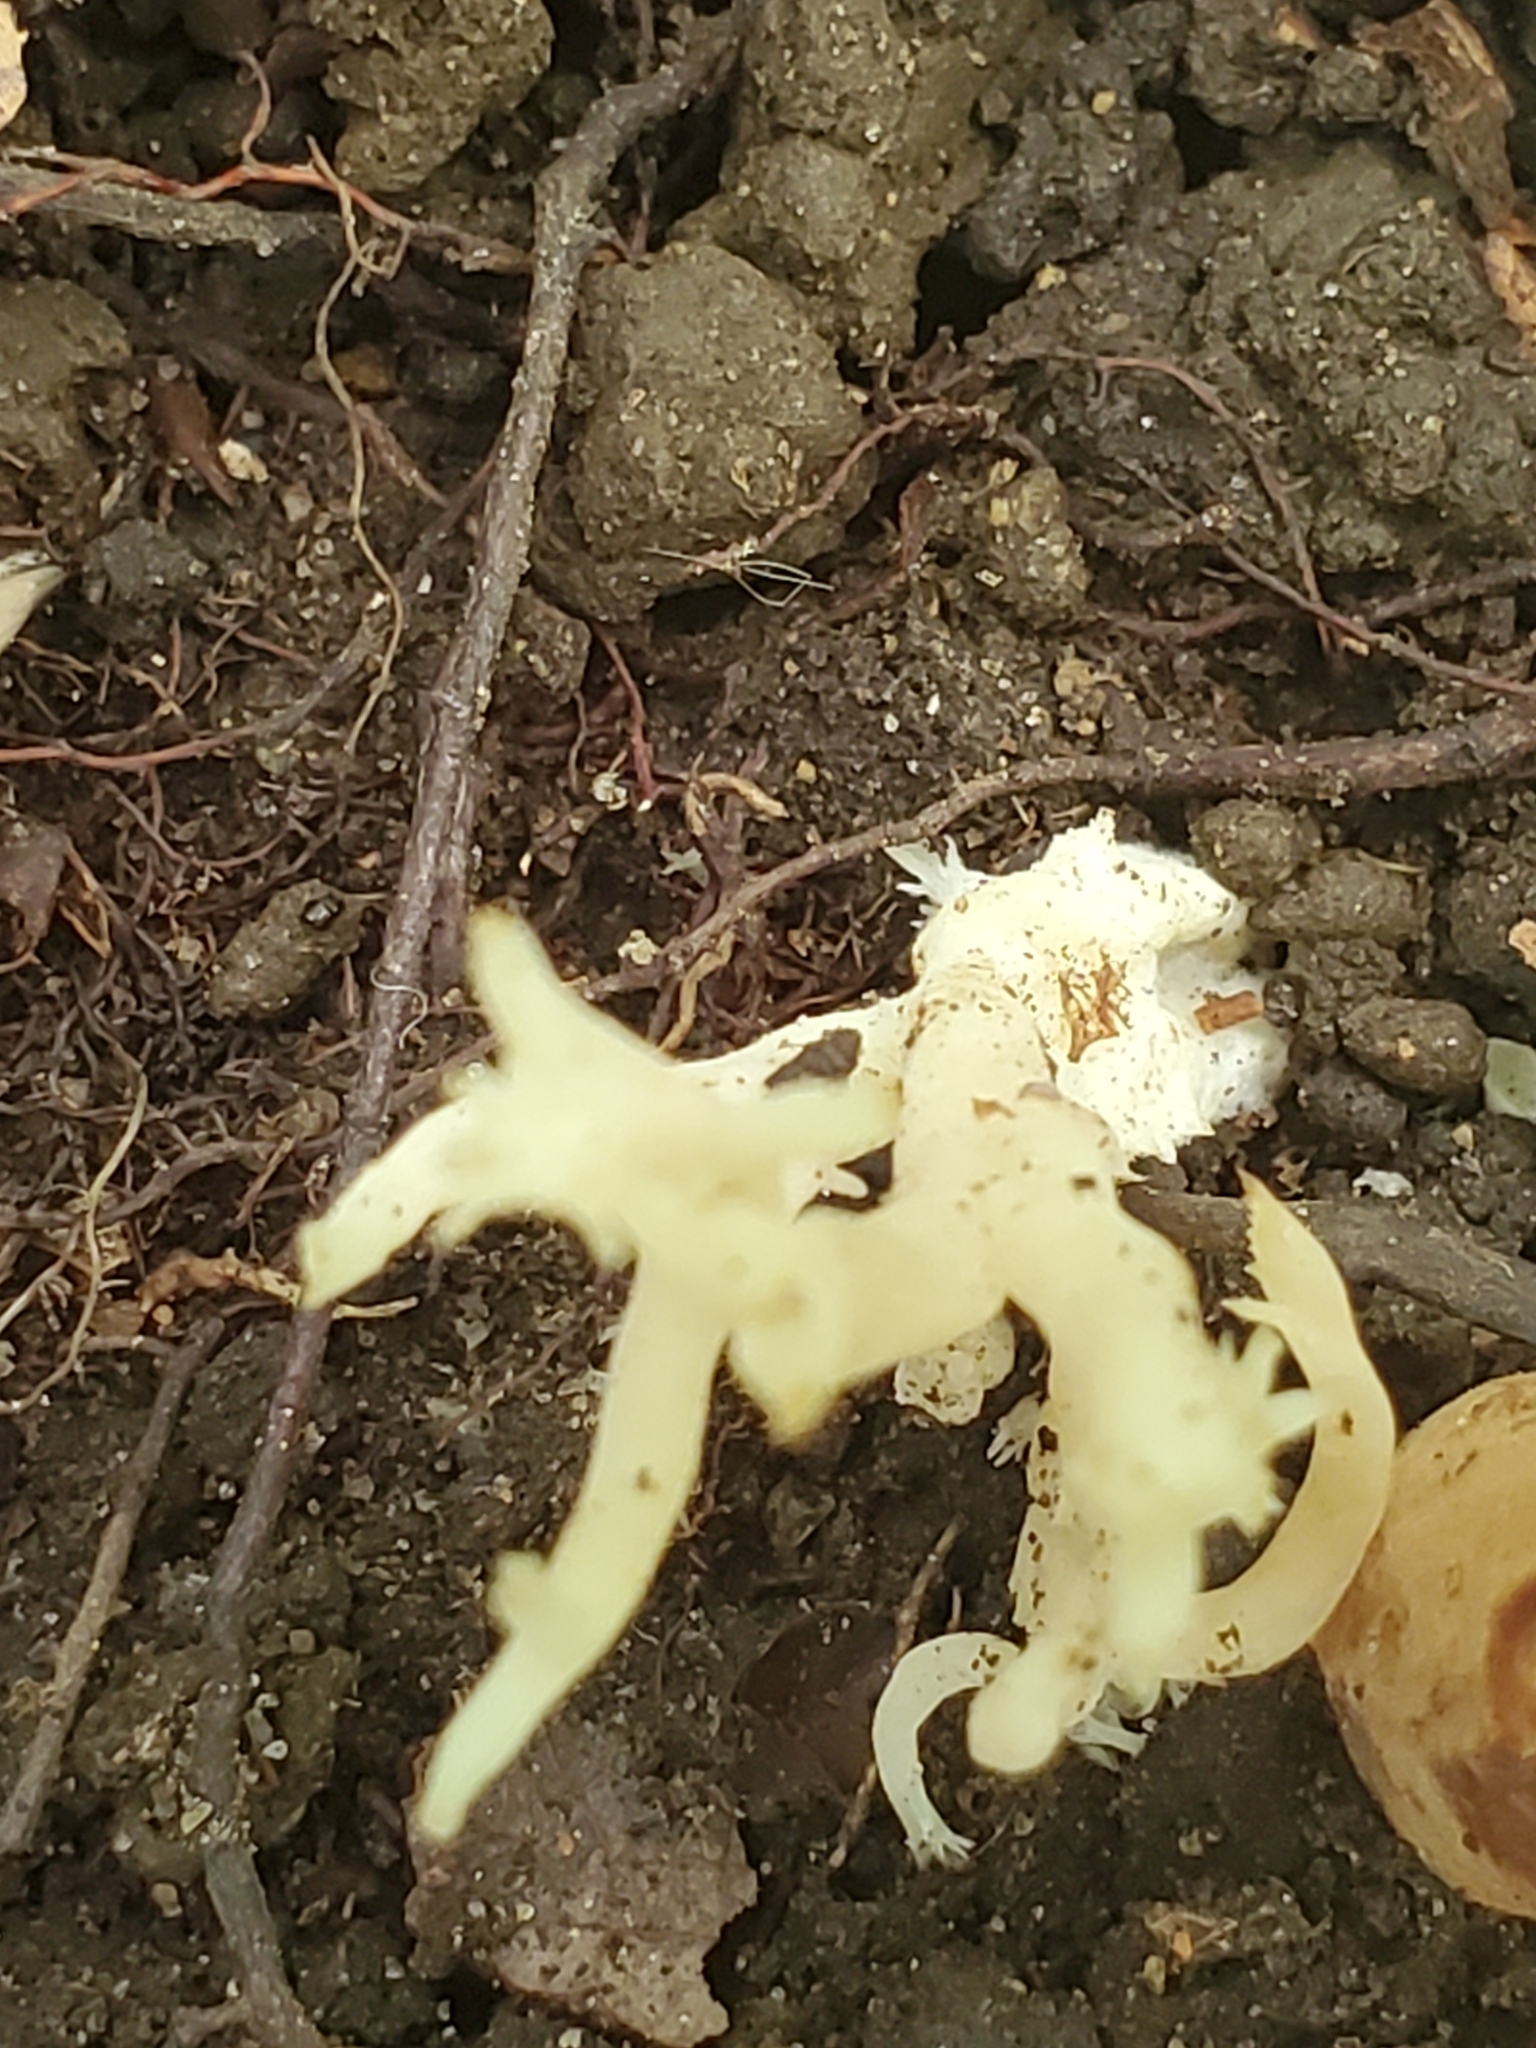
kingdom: Fungi
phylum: Basidiomycota
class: Agaricomycetes
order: Boletales
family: Gyroporaceae
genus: Gyroporus
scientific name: Gyroporus castaneus
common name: Chestnut bolete
